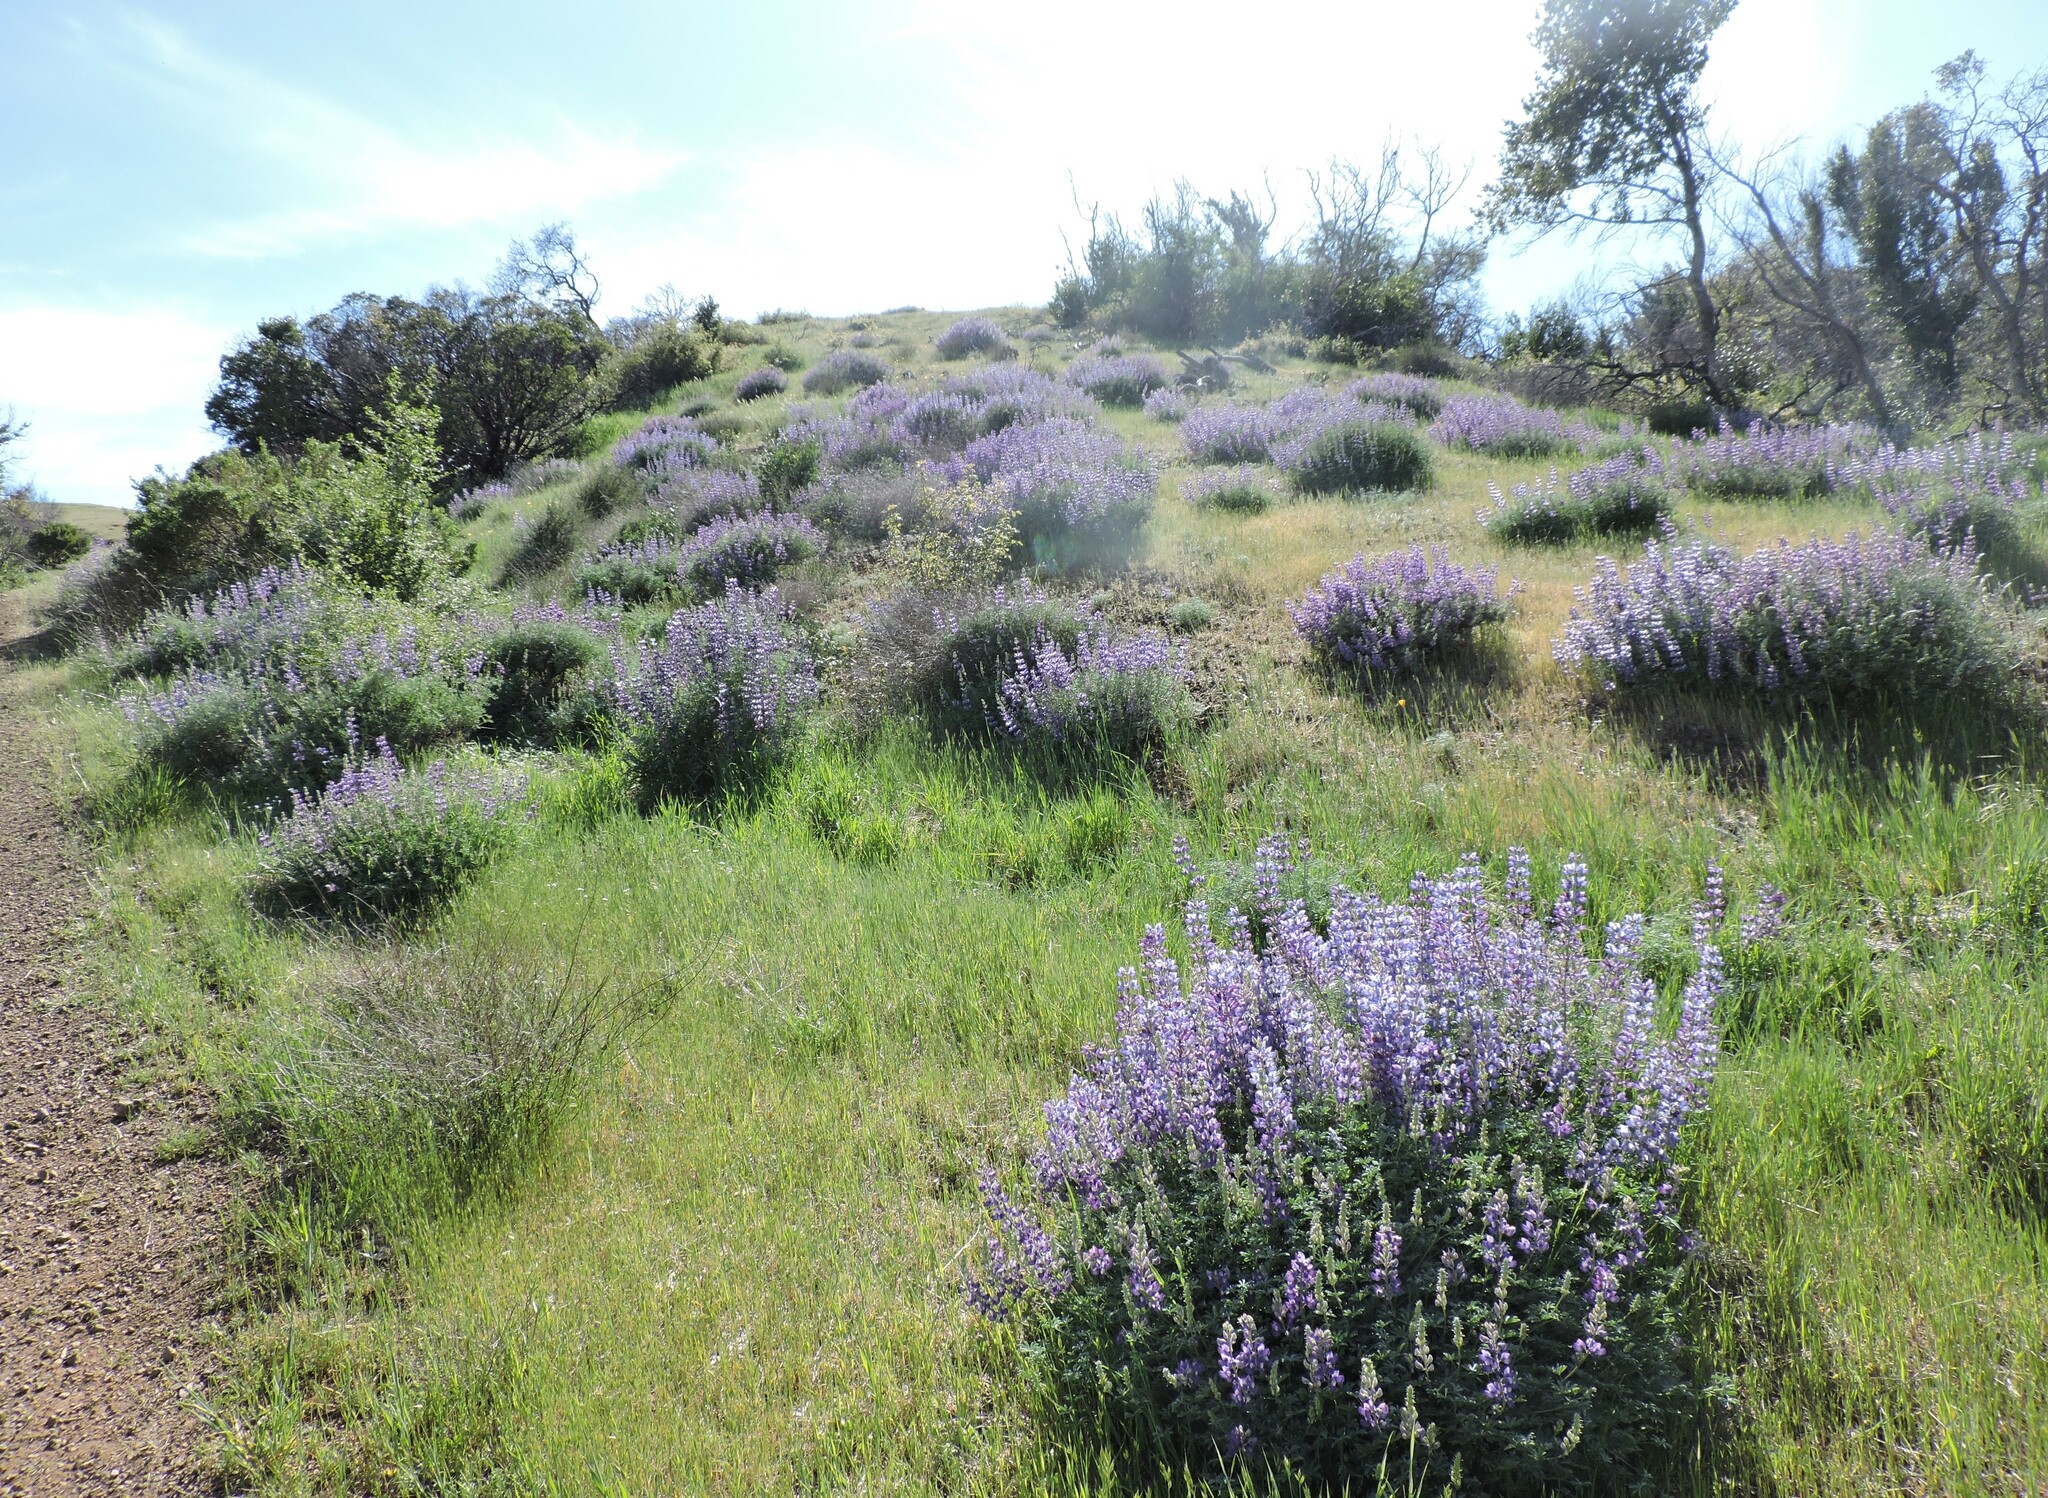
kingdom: Plantae
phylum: Tracheophyta
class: Magnoliopsida
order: Fabales
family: Fabaceae
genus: Lupinus
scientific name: Lupinus albifrons
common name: Foothill lupine
